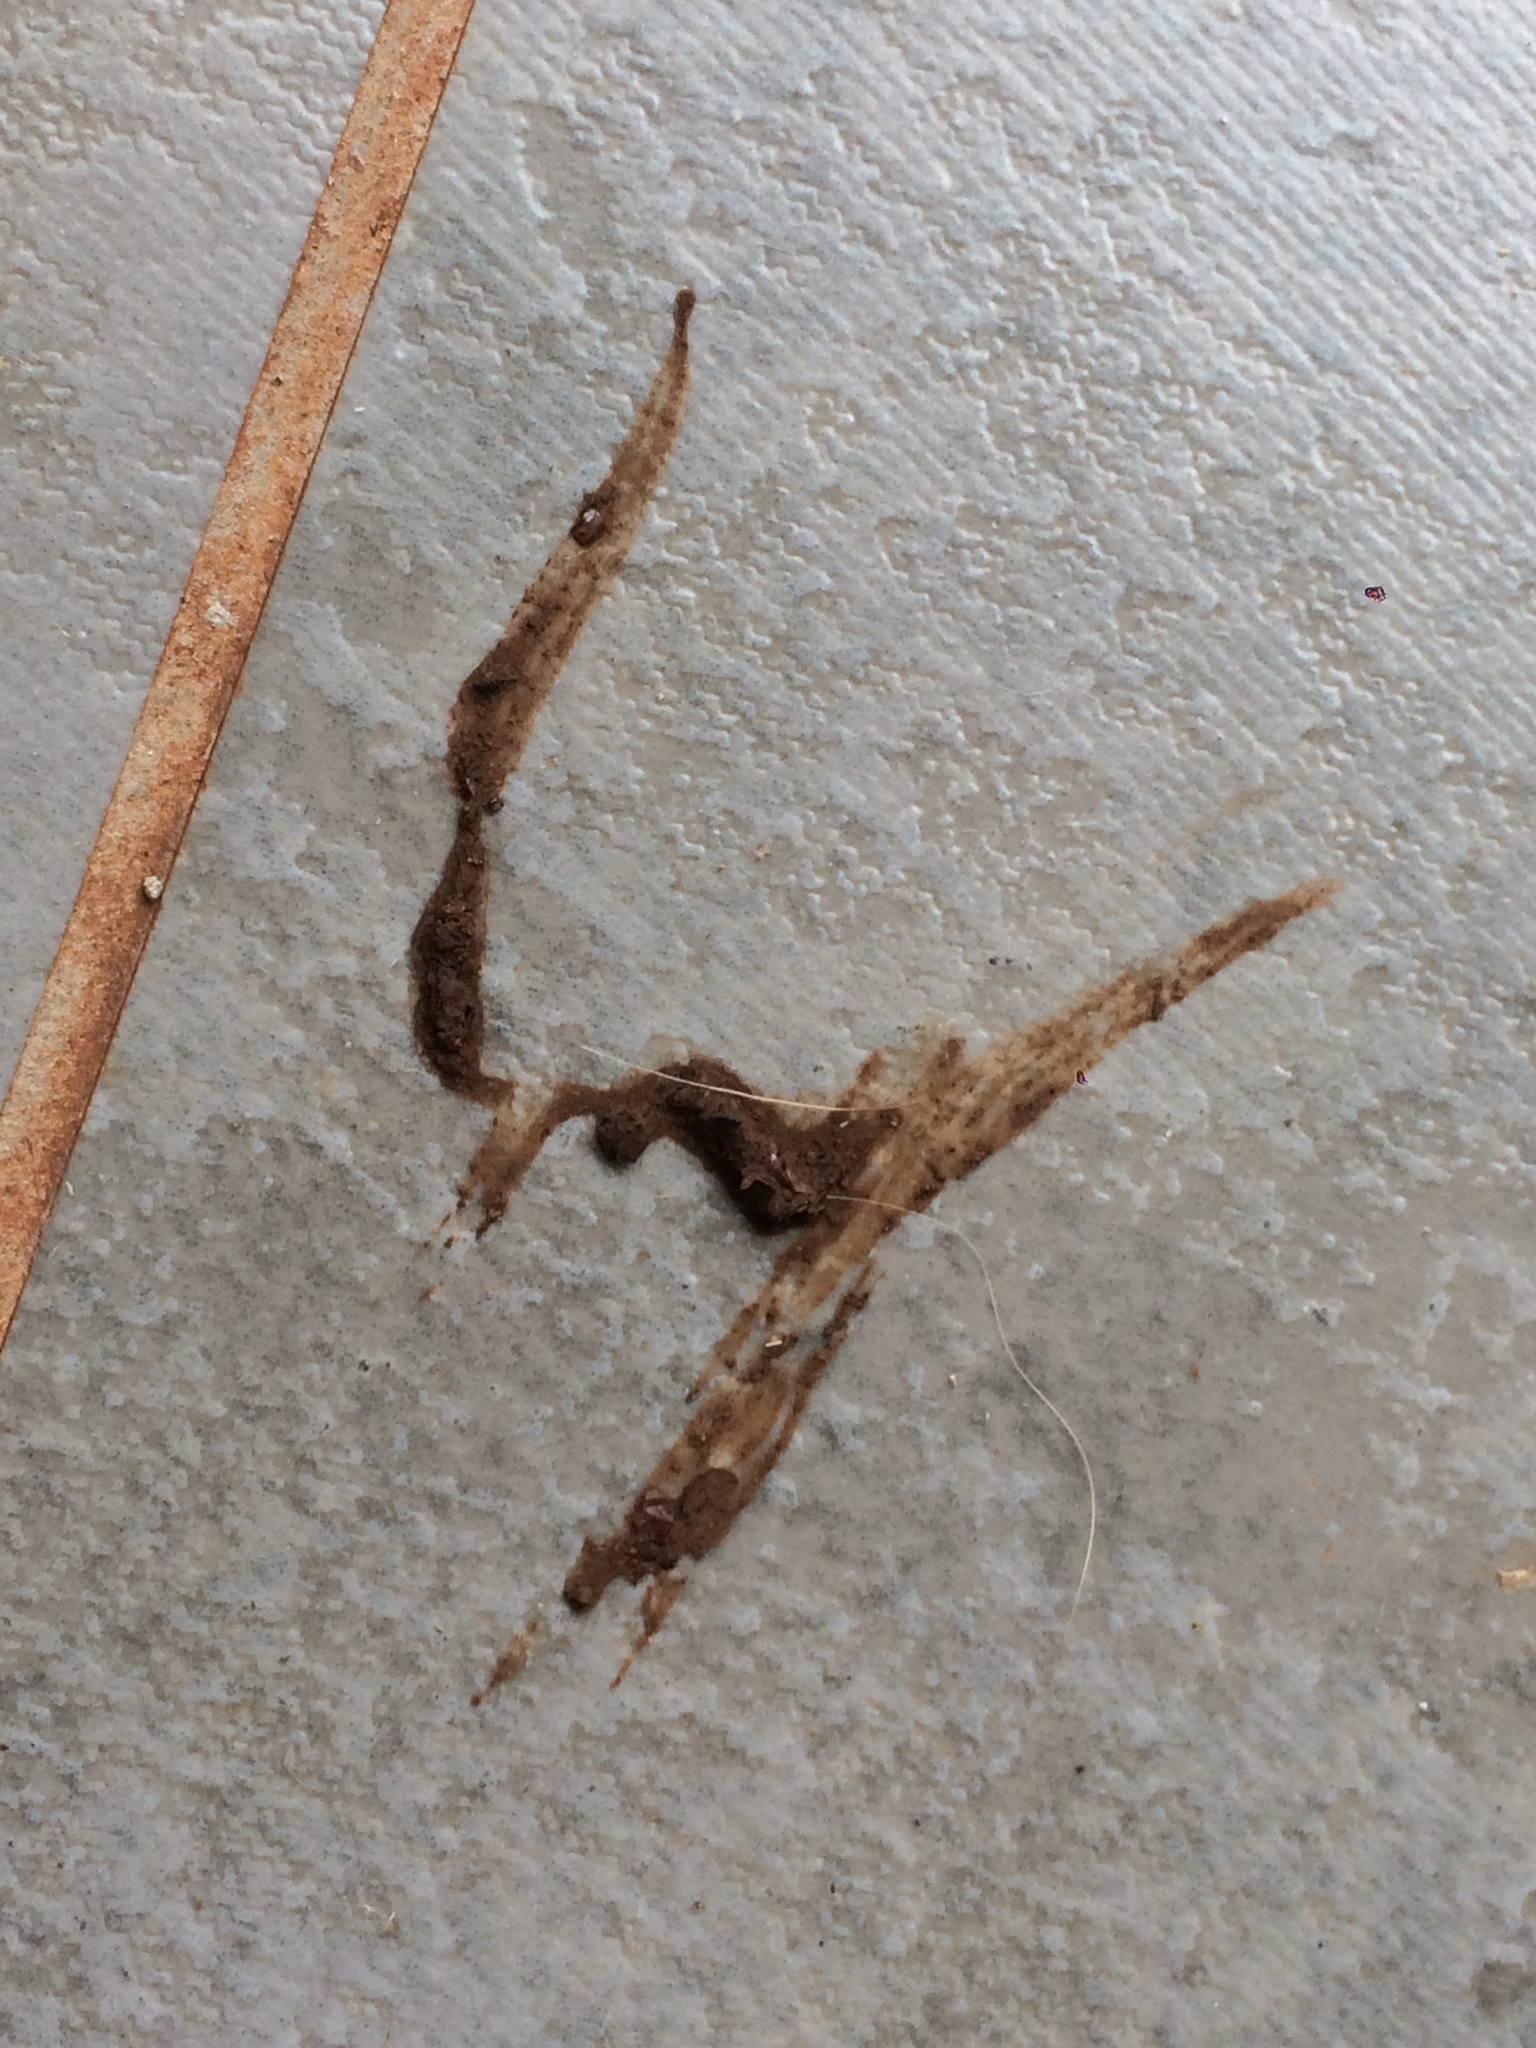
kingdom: Animalia
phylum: Chordata
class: Squamata
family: Amphisbaenidae
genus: Amphisbaena
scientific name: Amphisbaena mertensii
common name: Mertens' worm lizard
